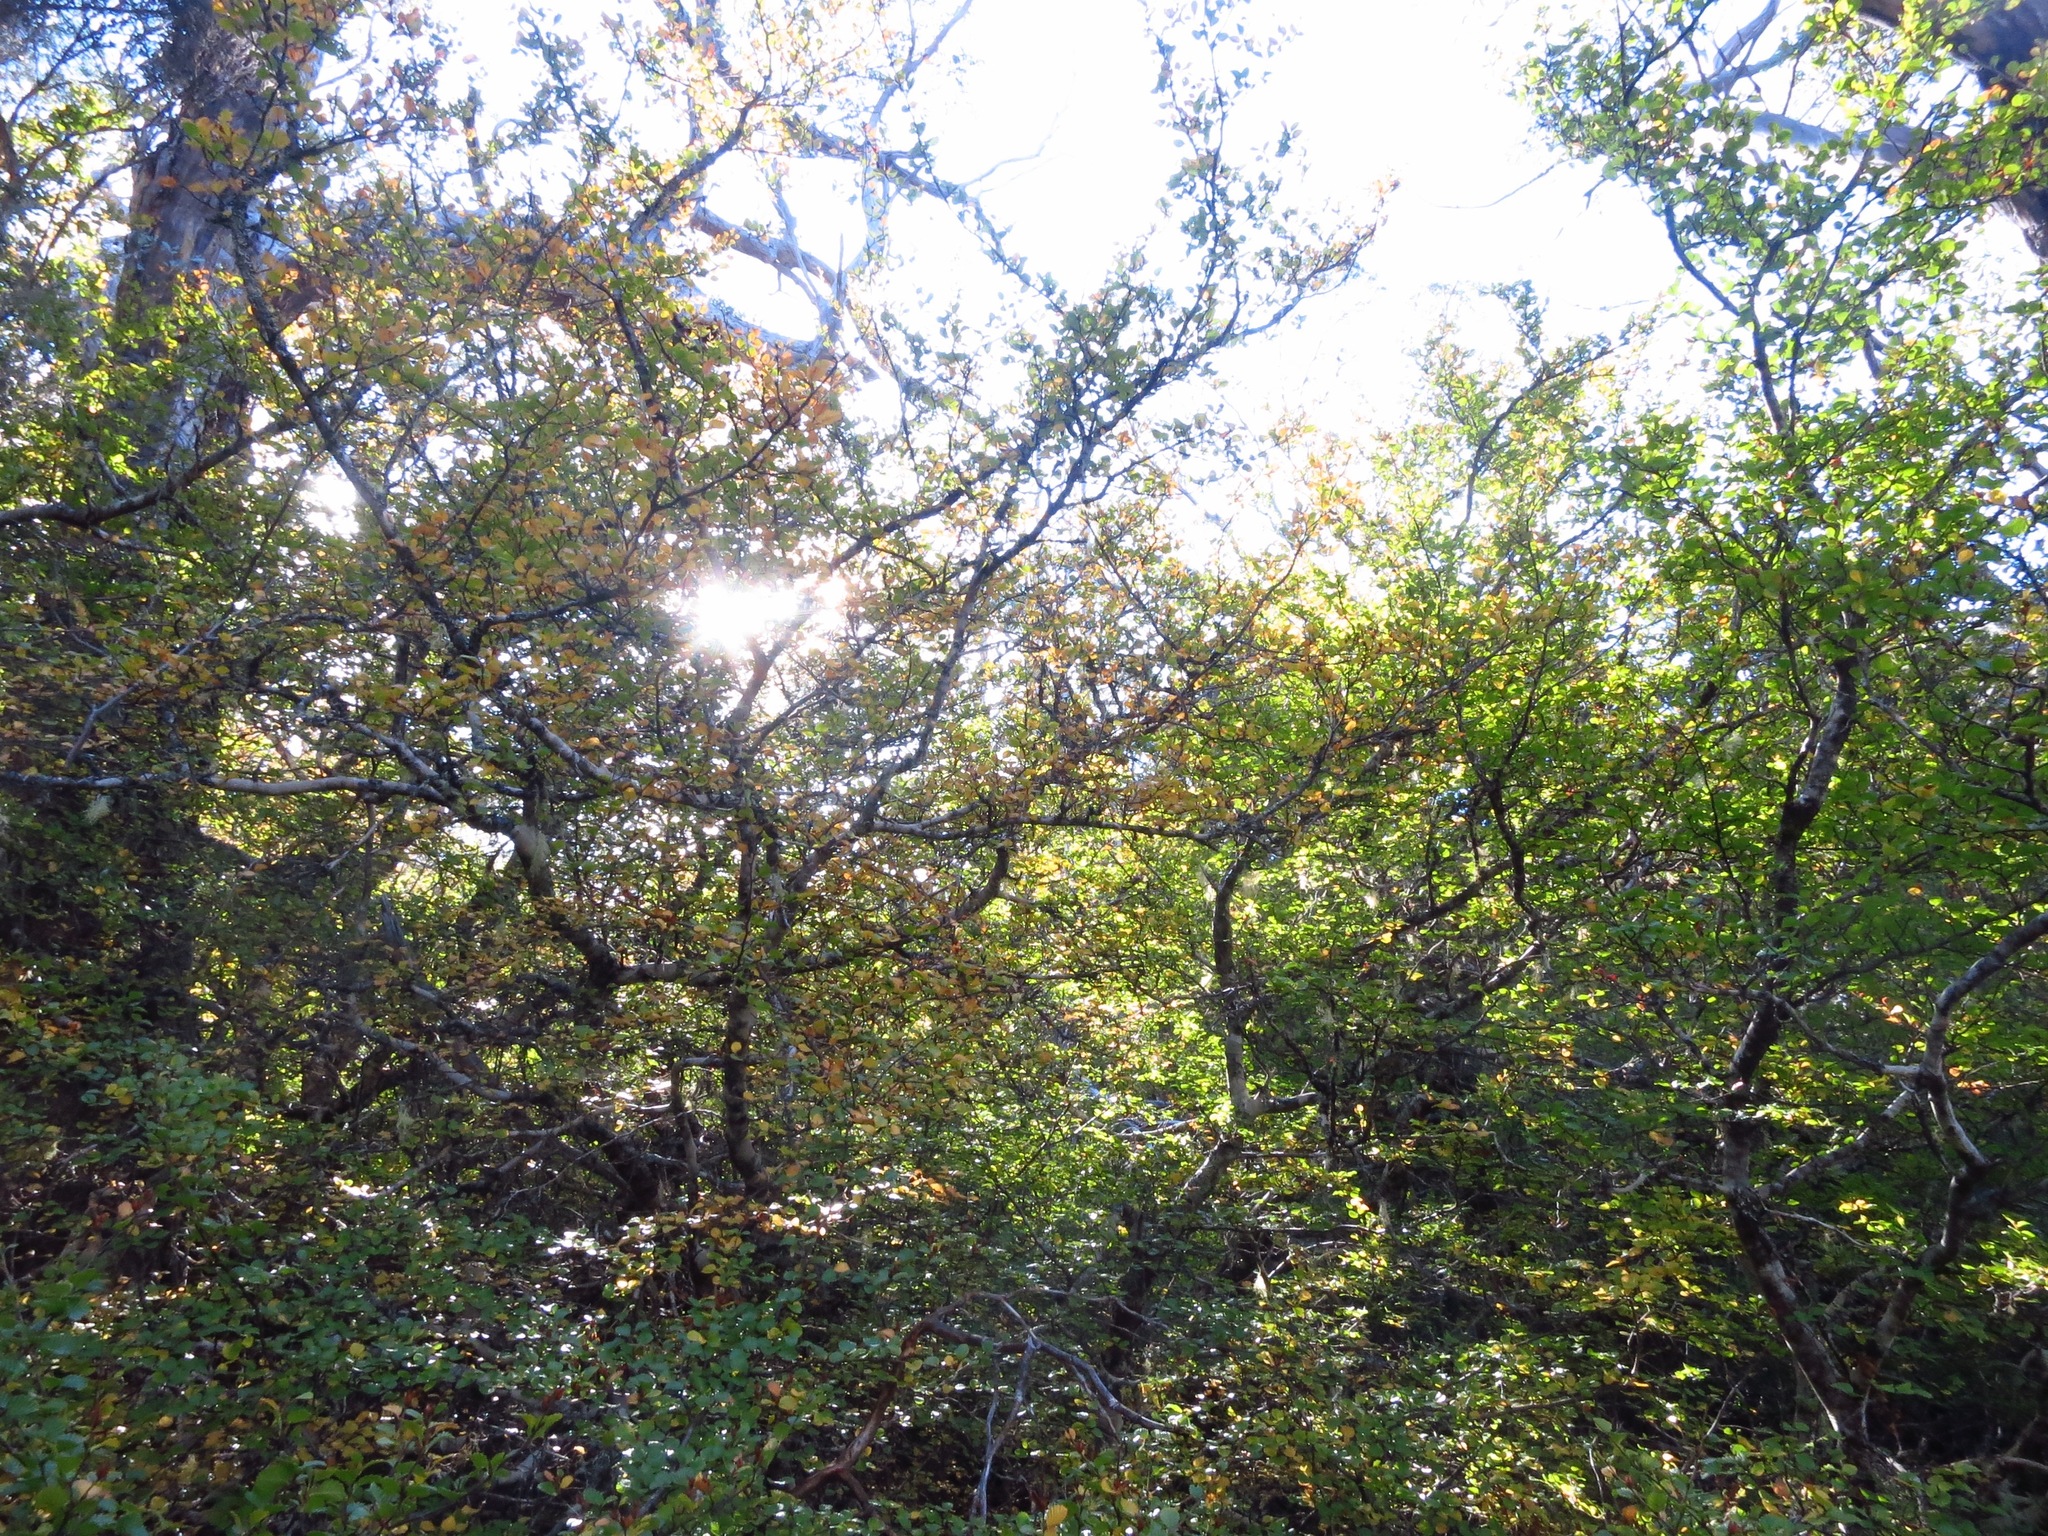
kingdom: Plantae
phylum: Tracheophyta
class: Magnoliopsida
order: Fagales
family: Nothofagaceae
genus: Nothofagus
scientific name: Nothofagus gunnii
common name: Tanglefoot
